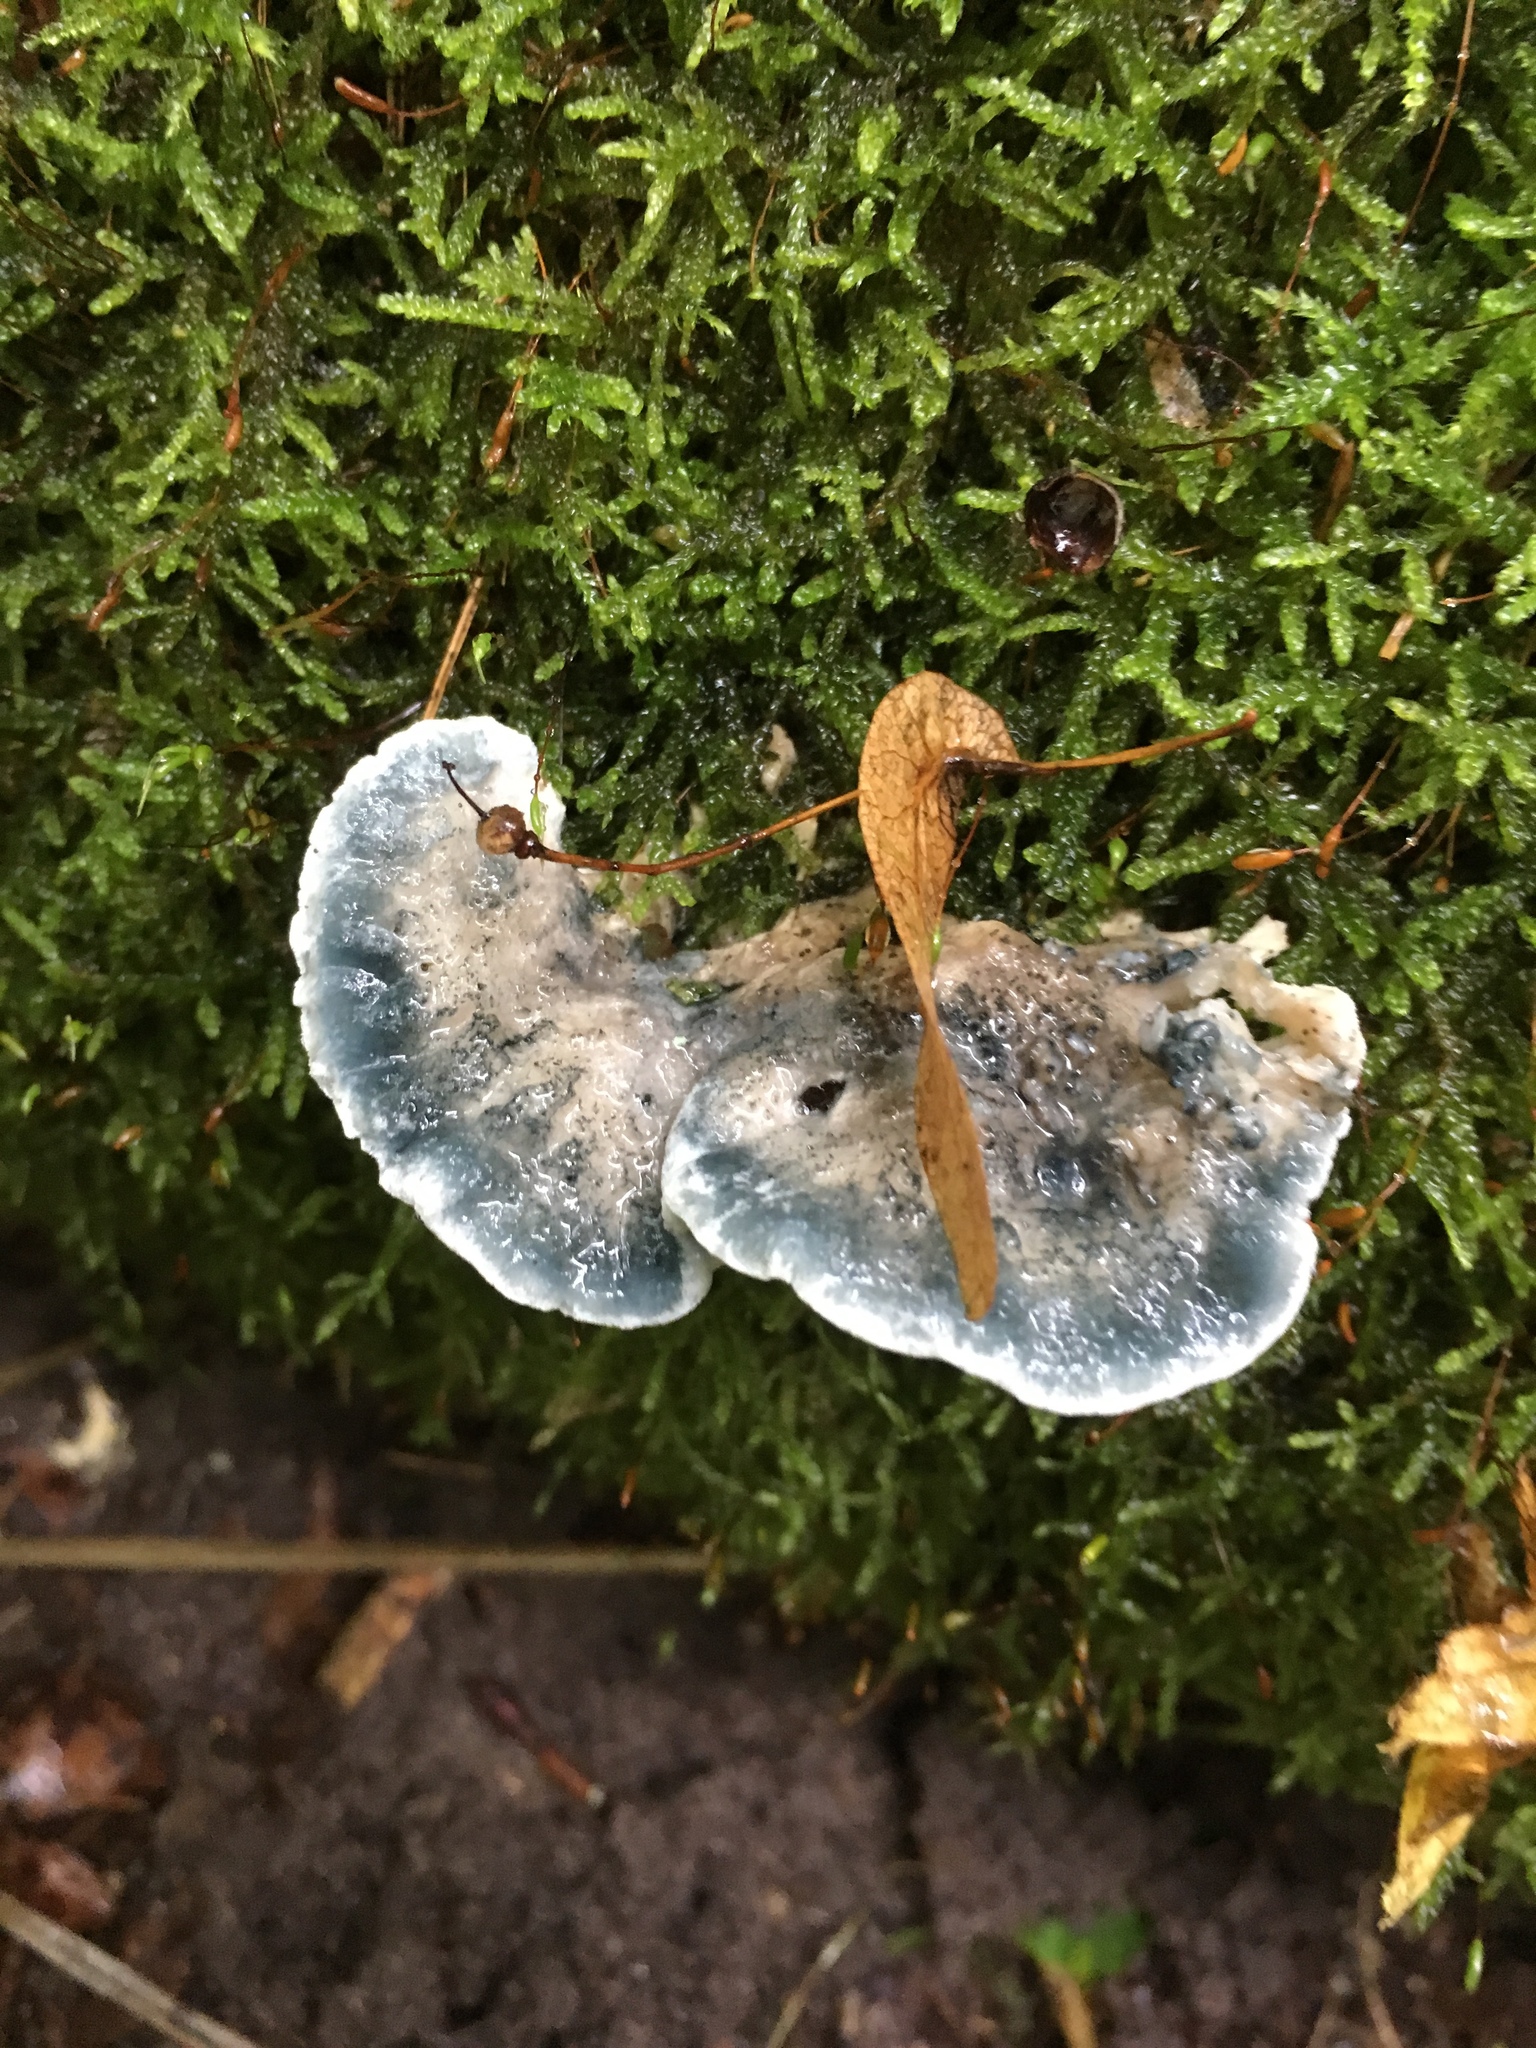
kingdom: Fungi
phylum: Basidiomycota
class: Agaricomycetes
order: Polyporales
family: Polyporaceae
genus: Cyanosporus
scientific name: Cyanosporus caesius
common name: Blue cheese polypore
